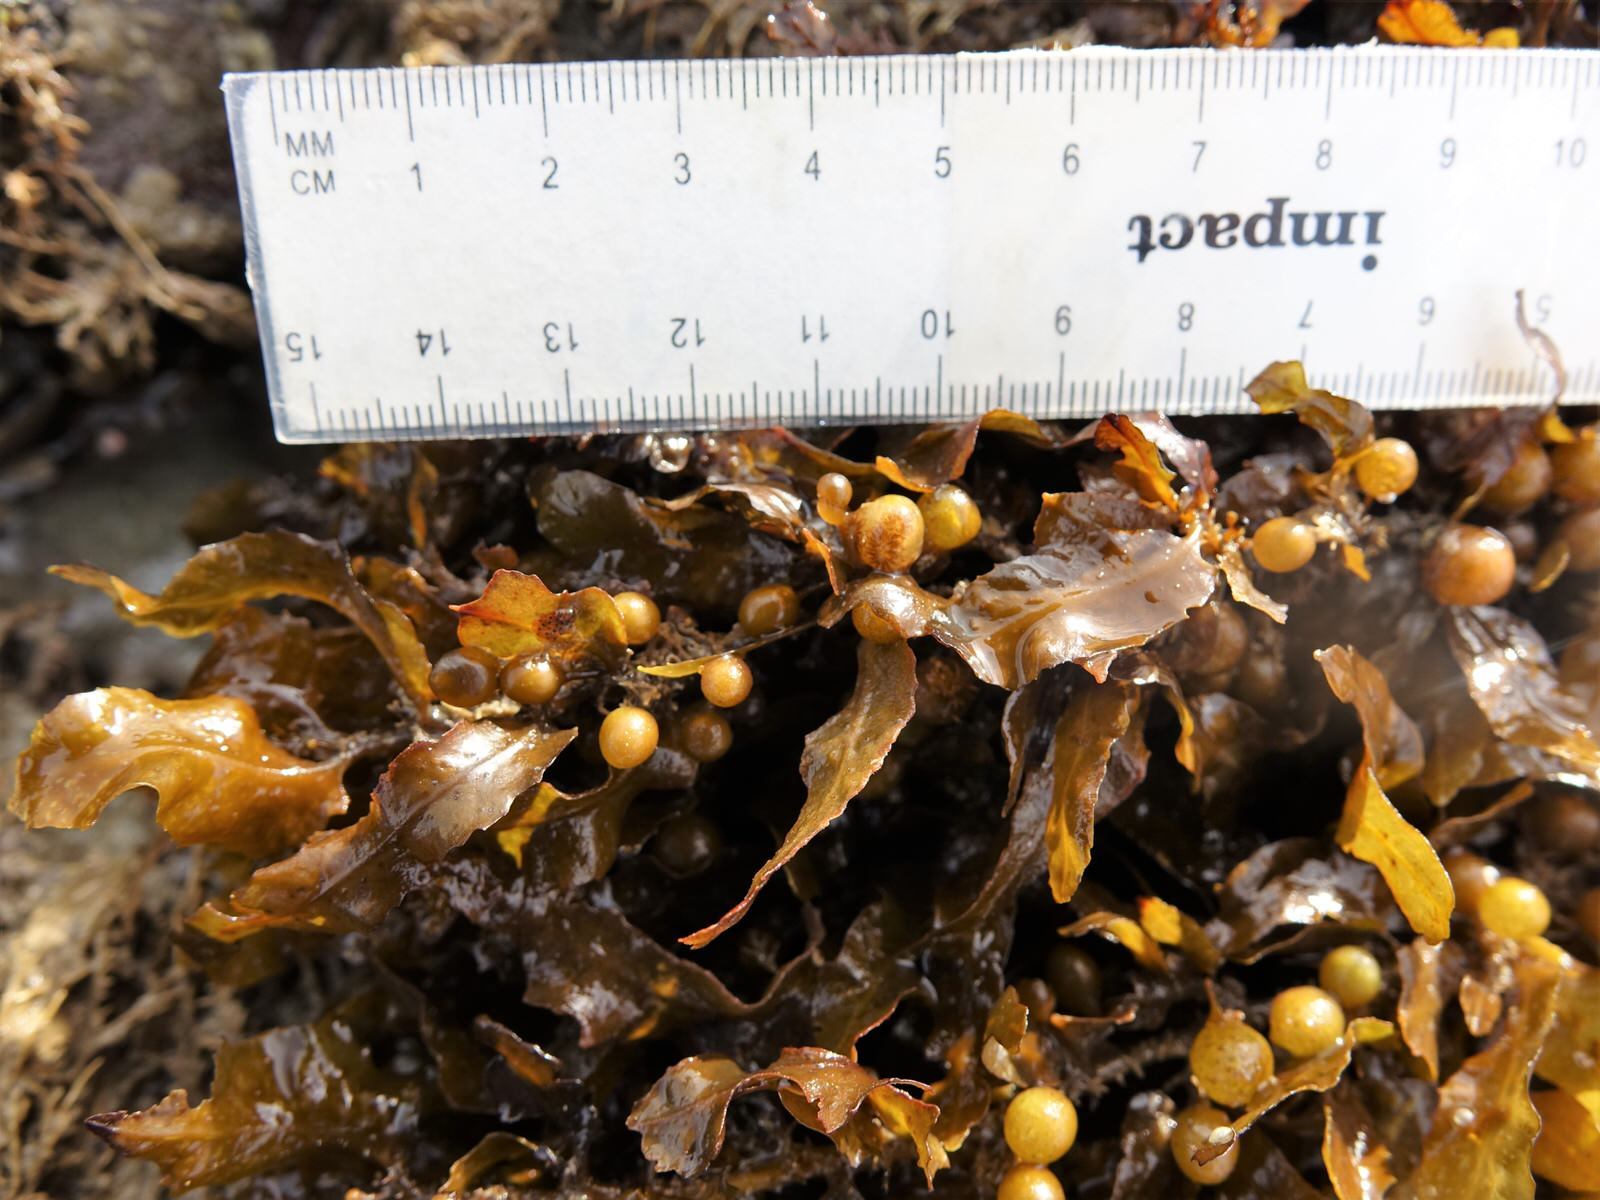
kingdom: Chromista
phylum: Ochrophyta
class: Phaeophyceae
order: Fucales
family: Sargassaceae
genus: Sargassum
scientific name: Sargassum sinclairii
